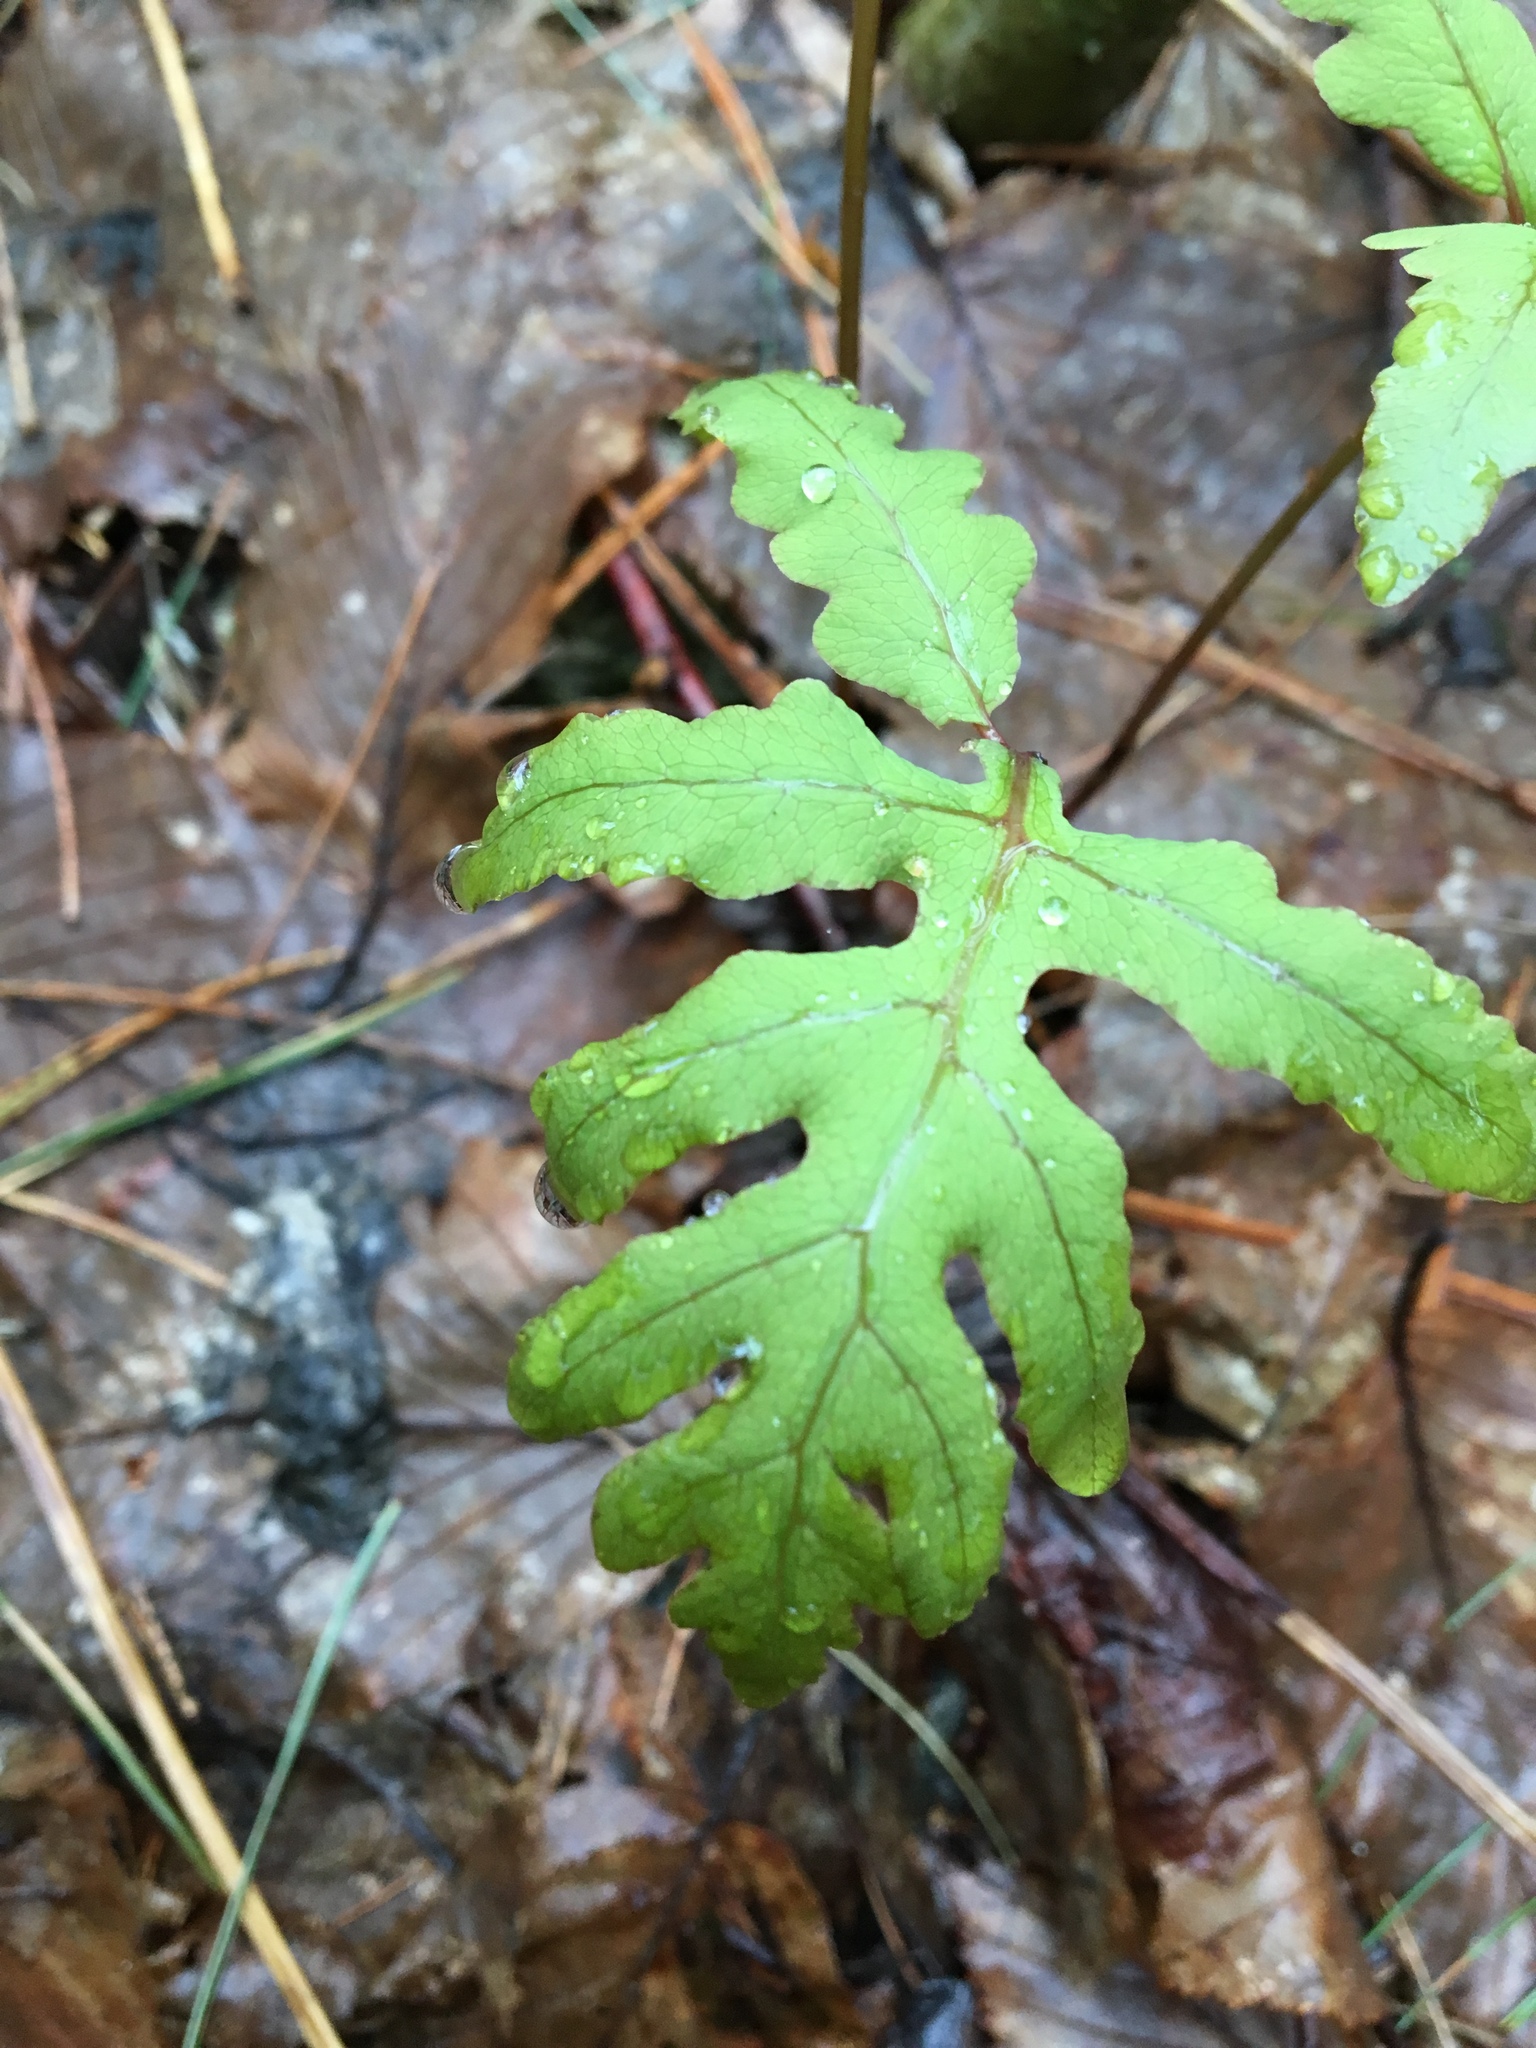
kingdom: Plantae
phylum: Tracheophyta
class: Polypodiopsida
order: Polypodiales
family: Onocleaceae
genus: Onoclea
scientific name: Onoclea sensibilis
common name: Sensitive fern
